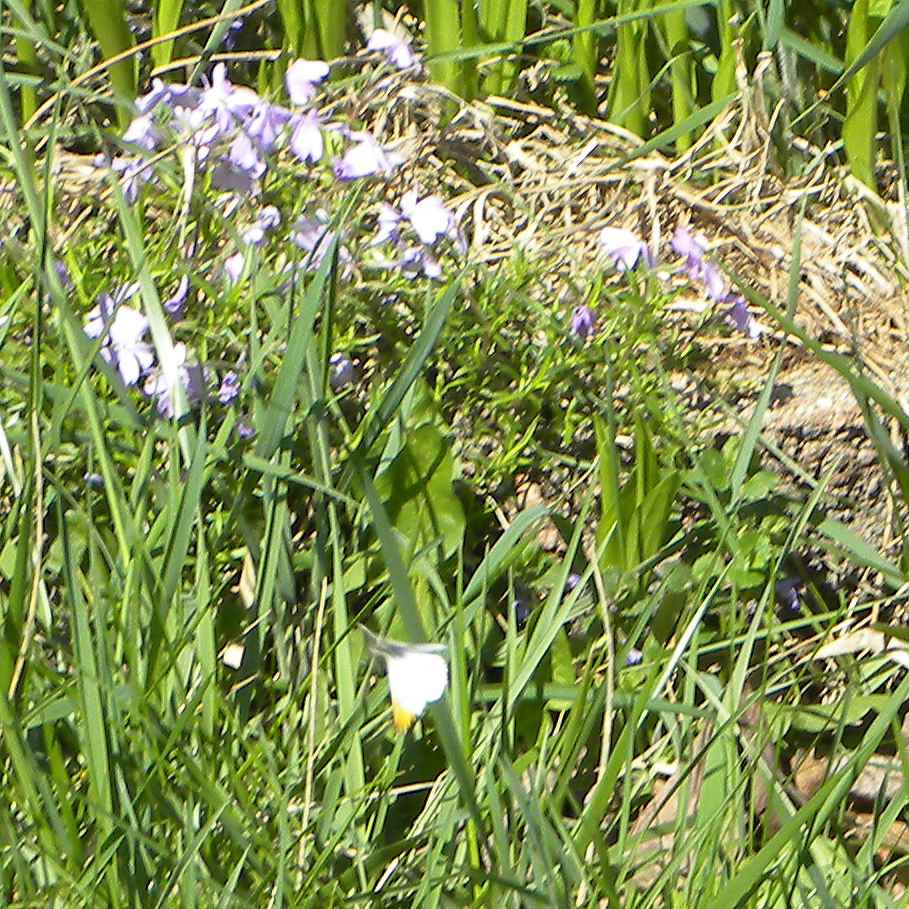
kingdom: Animalia
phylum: Arthropoda
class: Insecta
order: Lepidoptera
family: Pieridae
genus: Anthocharis
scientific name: Anthocharis midea
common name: Falcate orangetip
